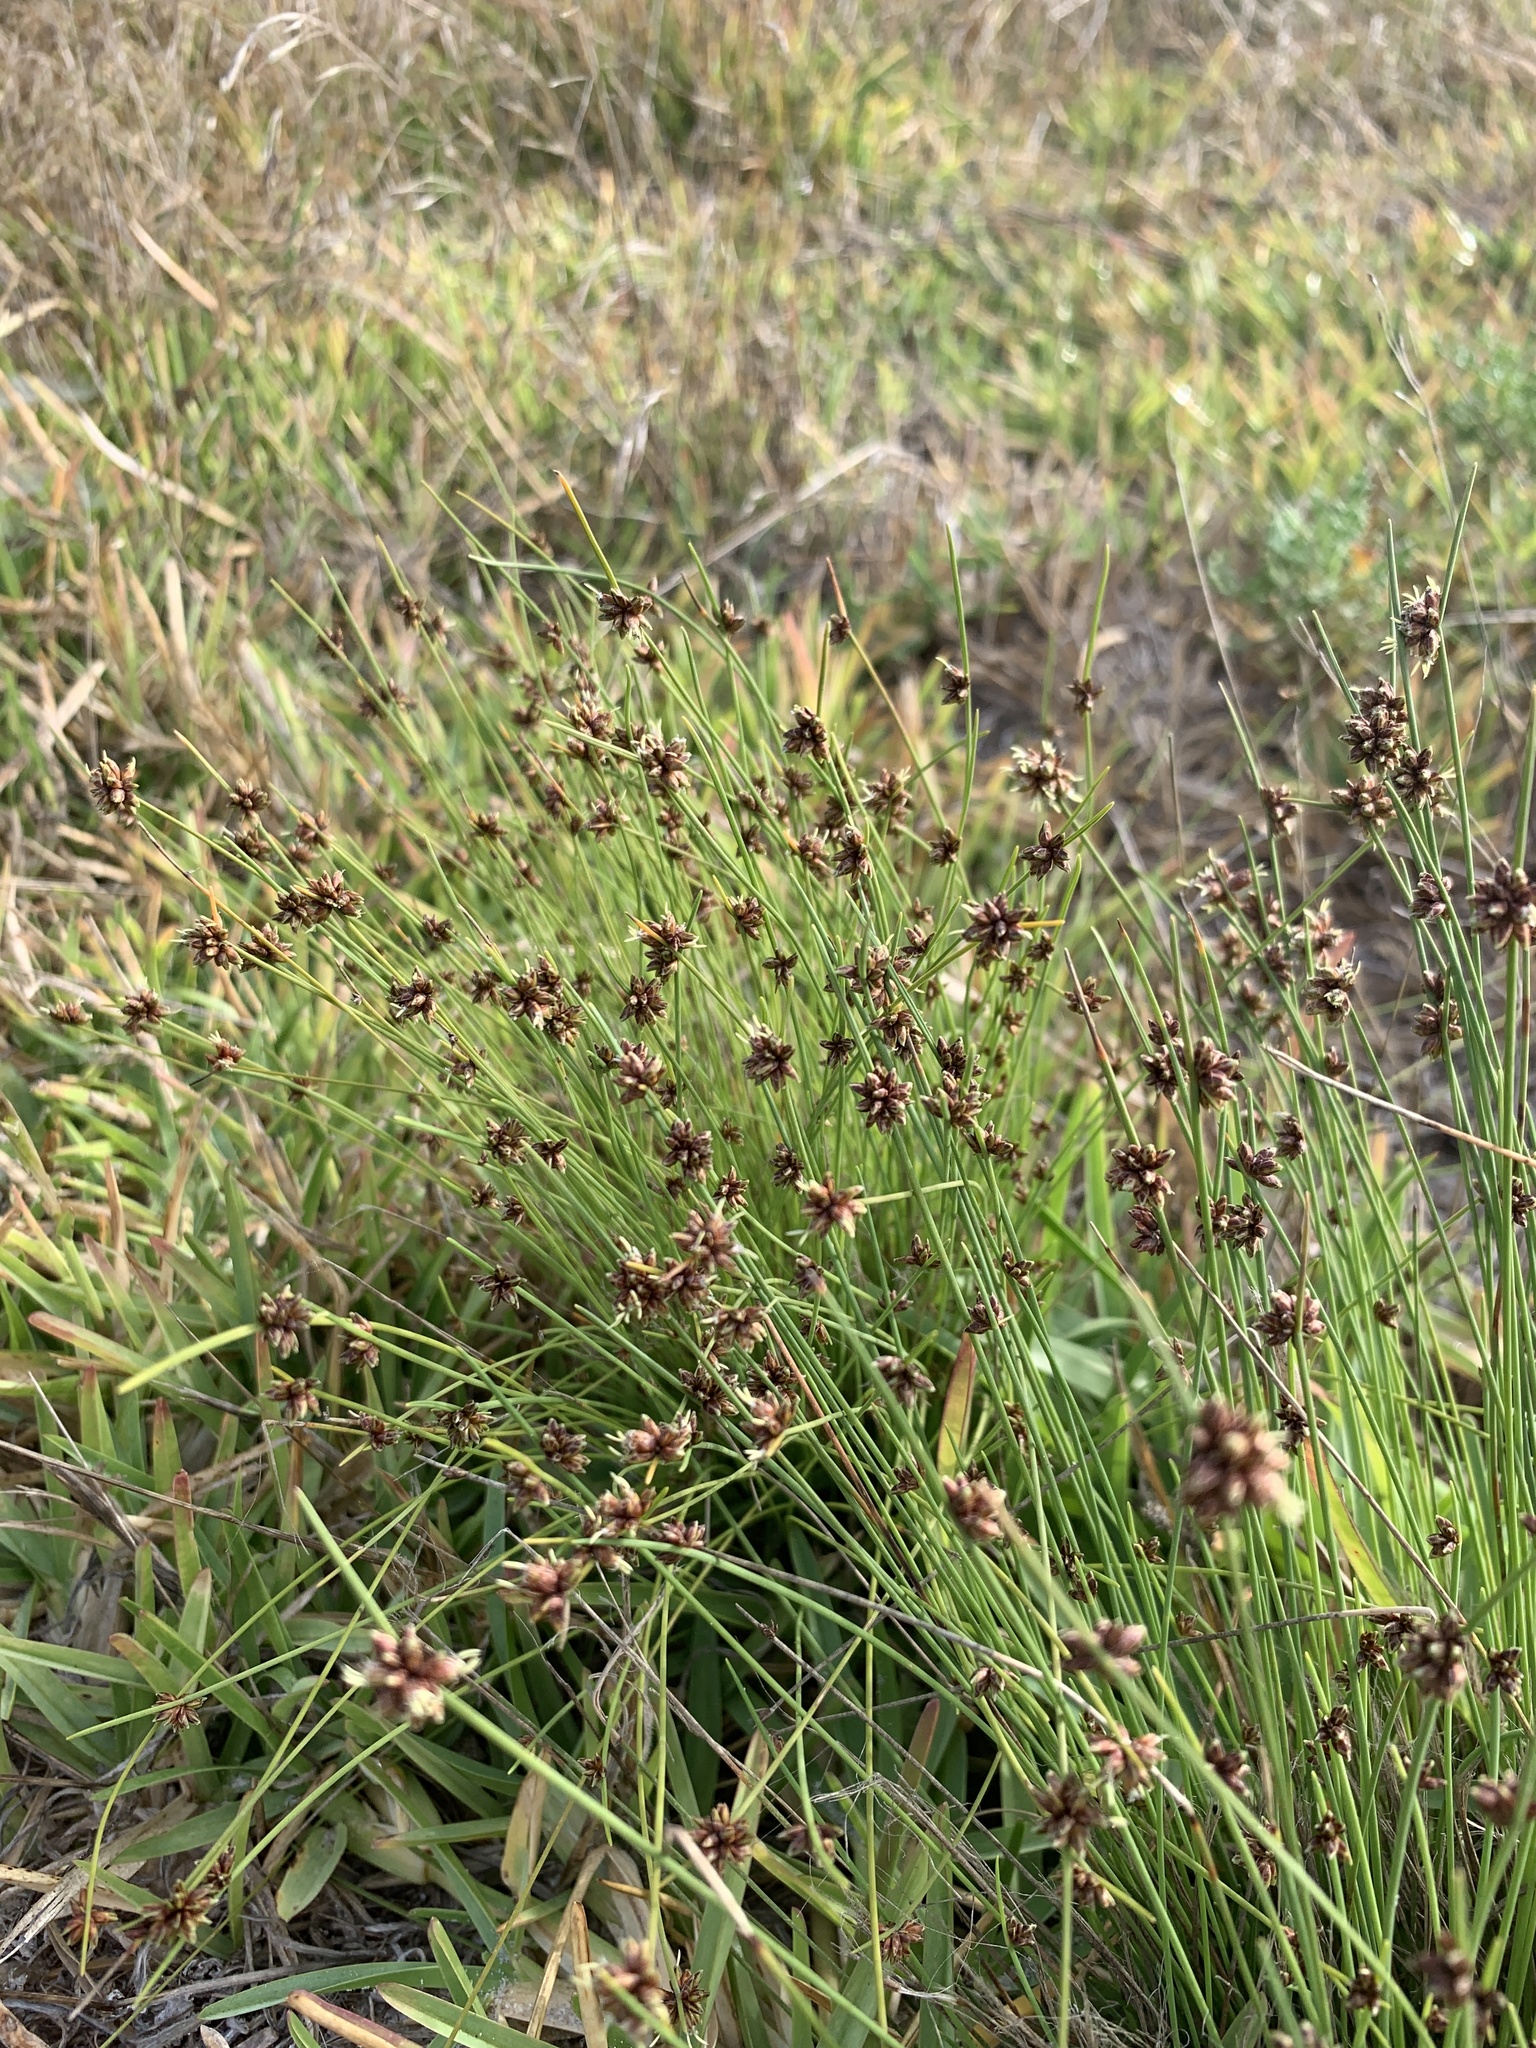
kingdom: Plantae
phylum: Tracheophyta
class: Liliopsida
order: Poales
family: Cyperaceae
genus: Ficinia
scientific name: Ficinia lateralis
